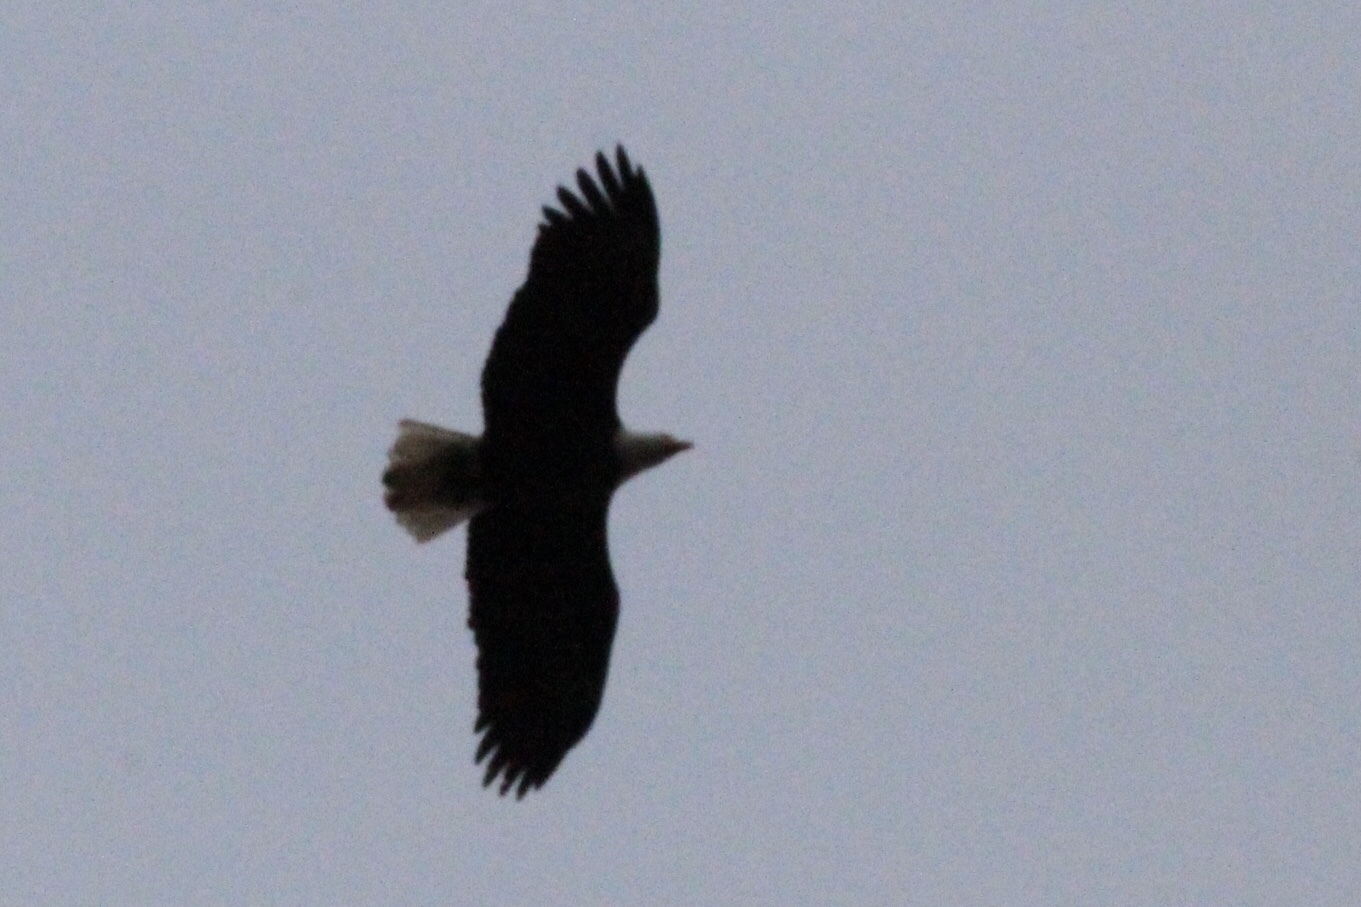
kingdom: Animalia
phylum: Chordata
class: Aves
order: Accipitriformes
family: Accipitridae
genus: Haliaeetus
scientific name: Haliaeetus leucocephalus
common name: Bald eagle
